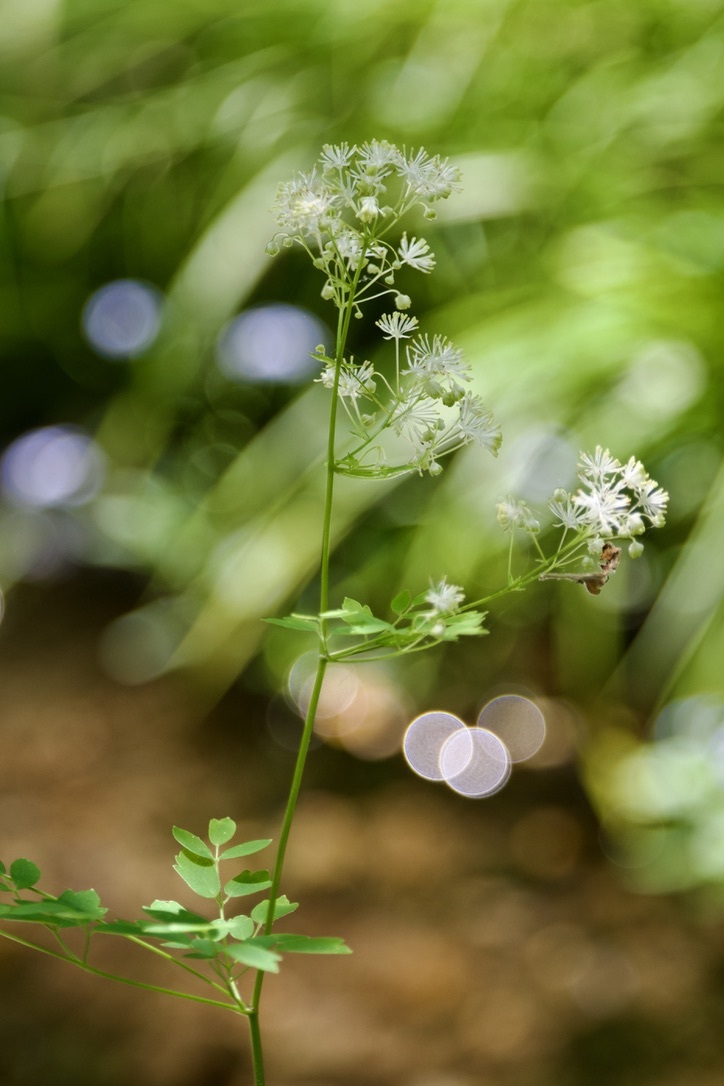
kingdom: Plantae
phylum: Tracheophyta
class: Magnoliopsida
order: Ranunculales
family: Ranunculaceae
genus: Thalictrum
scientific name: Thalictrum pubescens
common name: King-of-the-meadow
